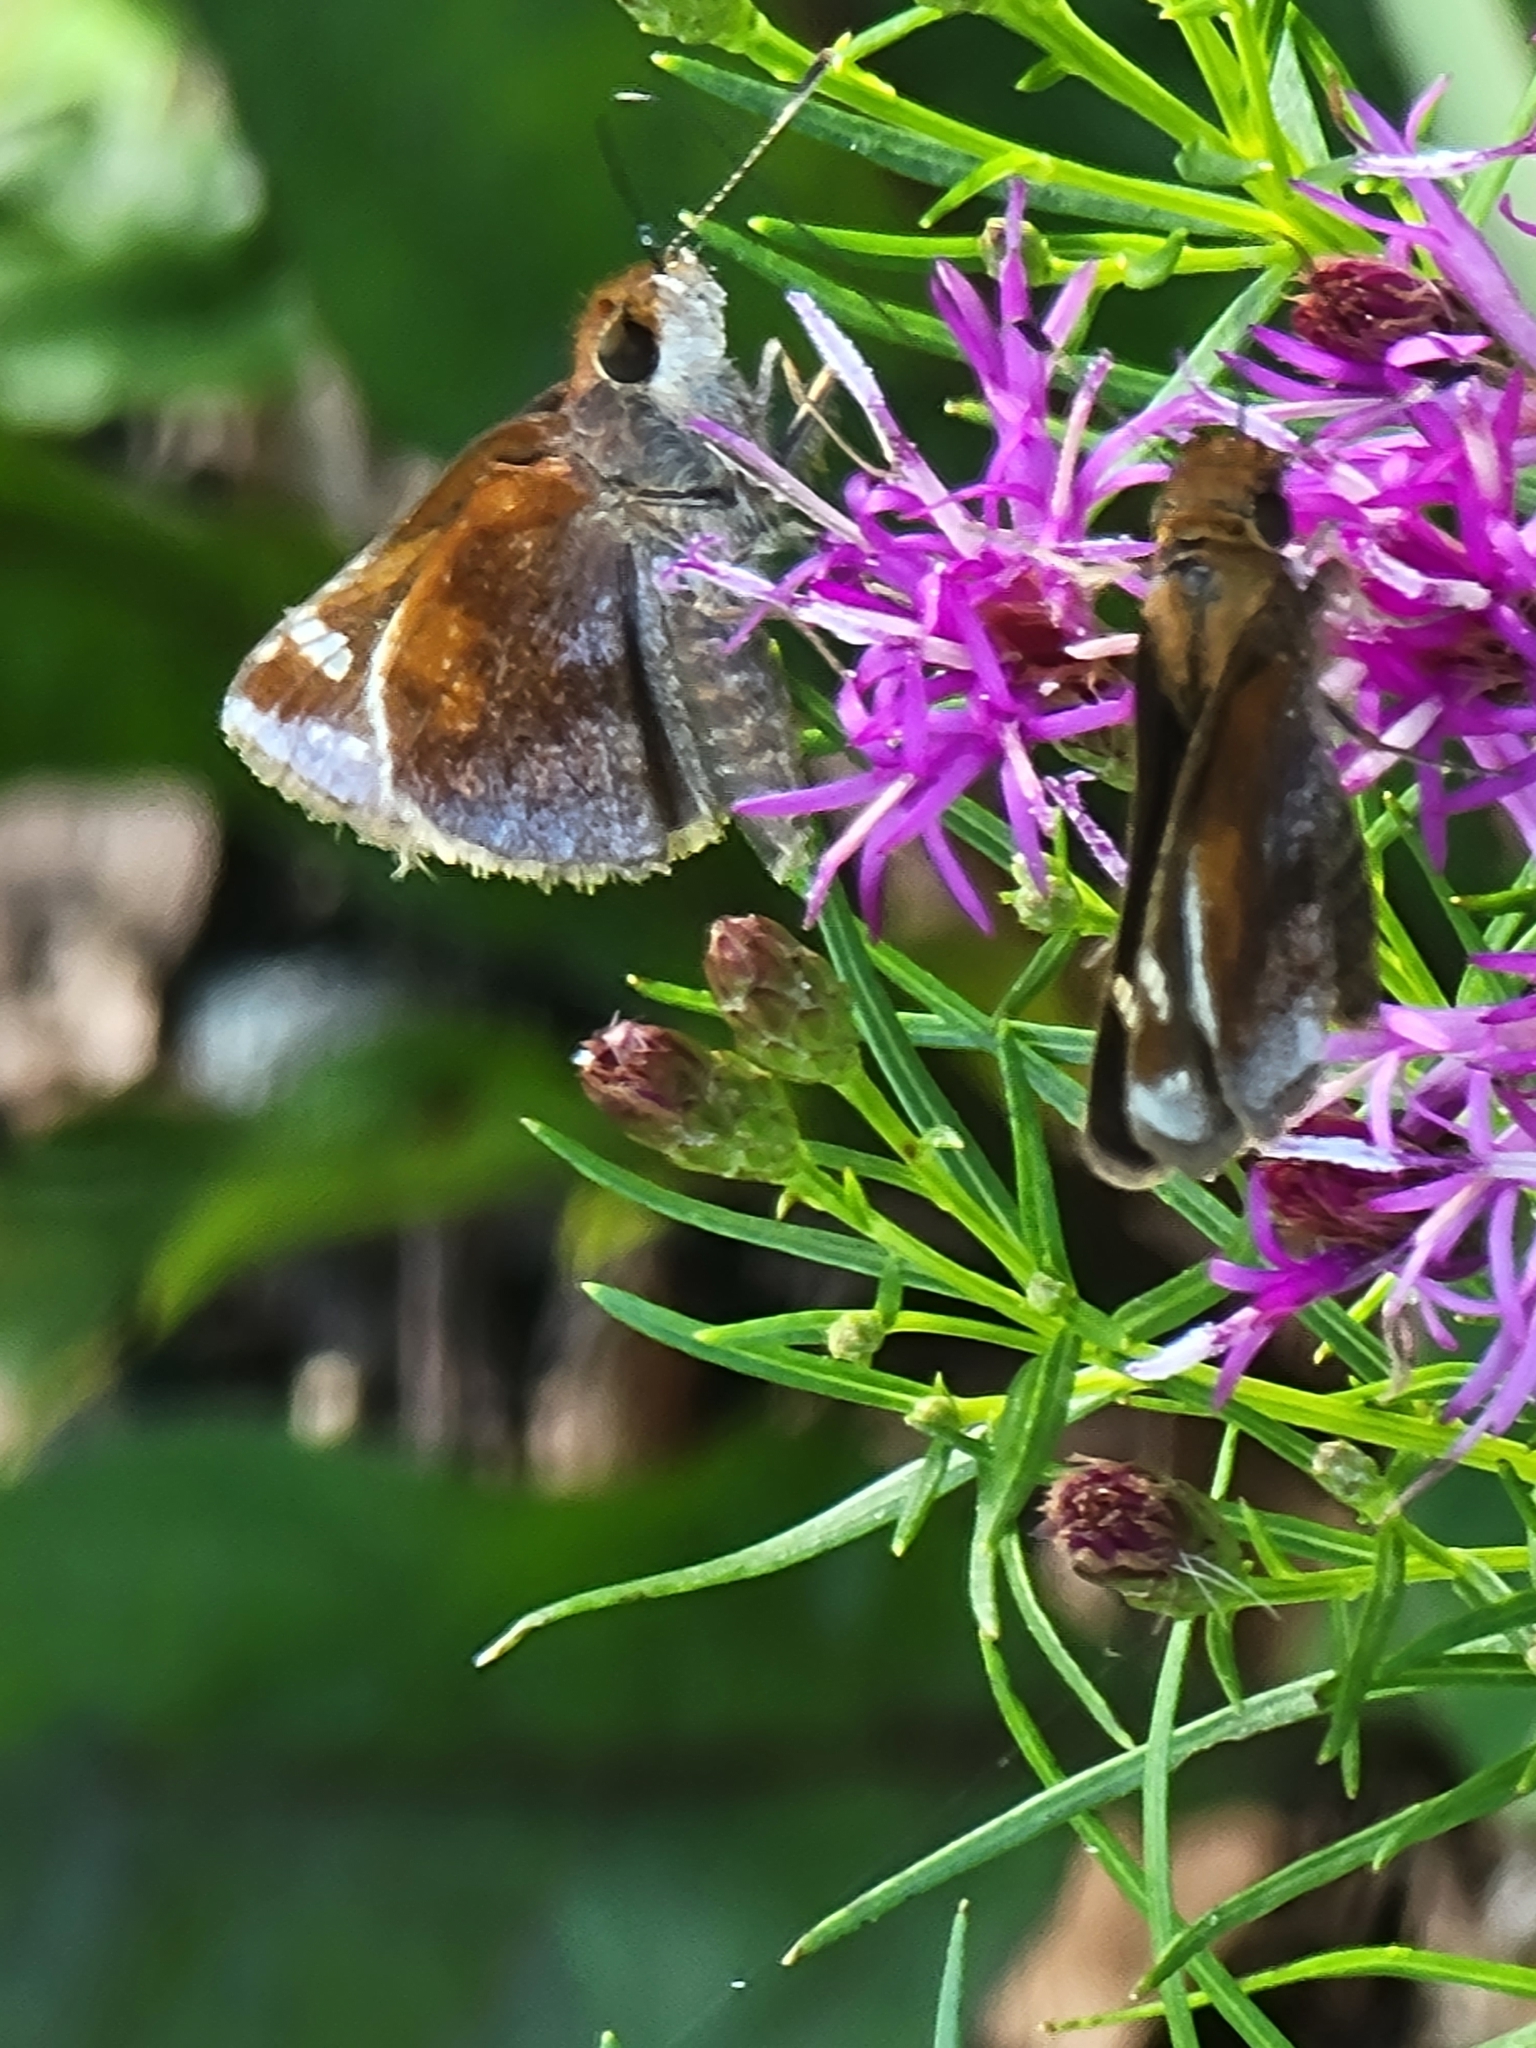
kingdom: Animalia
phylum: Arthropoda
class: Insecta
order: Lepidoptera
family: Hesperiidae
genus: Lon
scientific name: Lon zabulon
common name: Zabulon skipper
